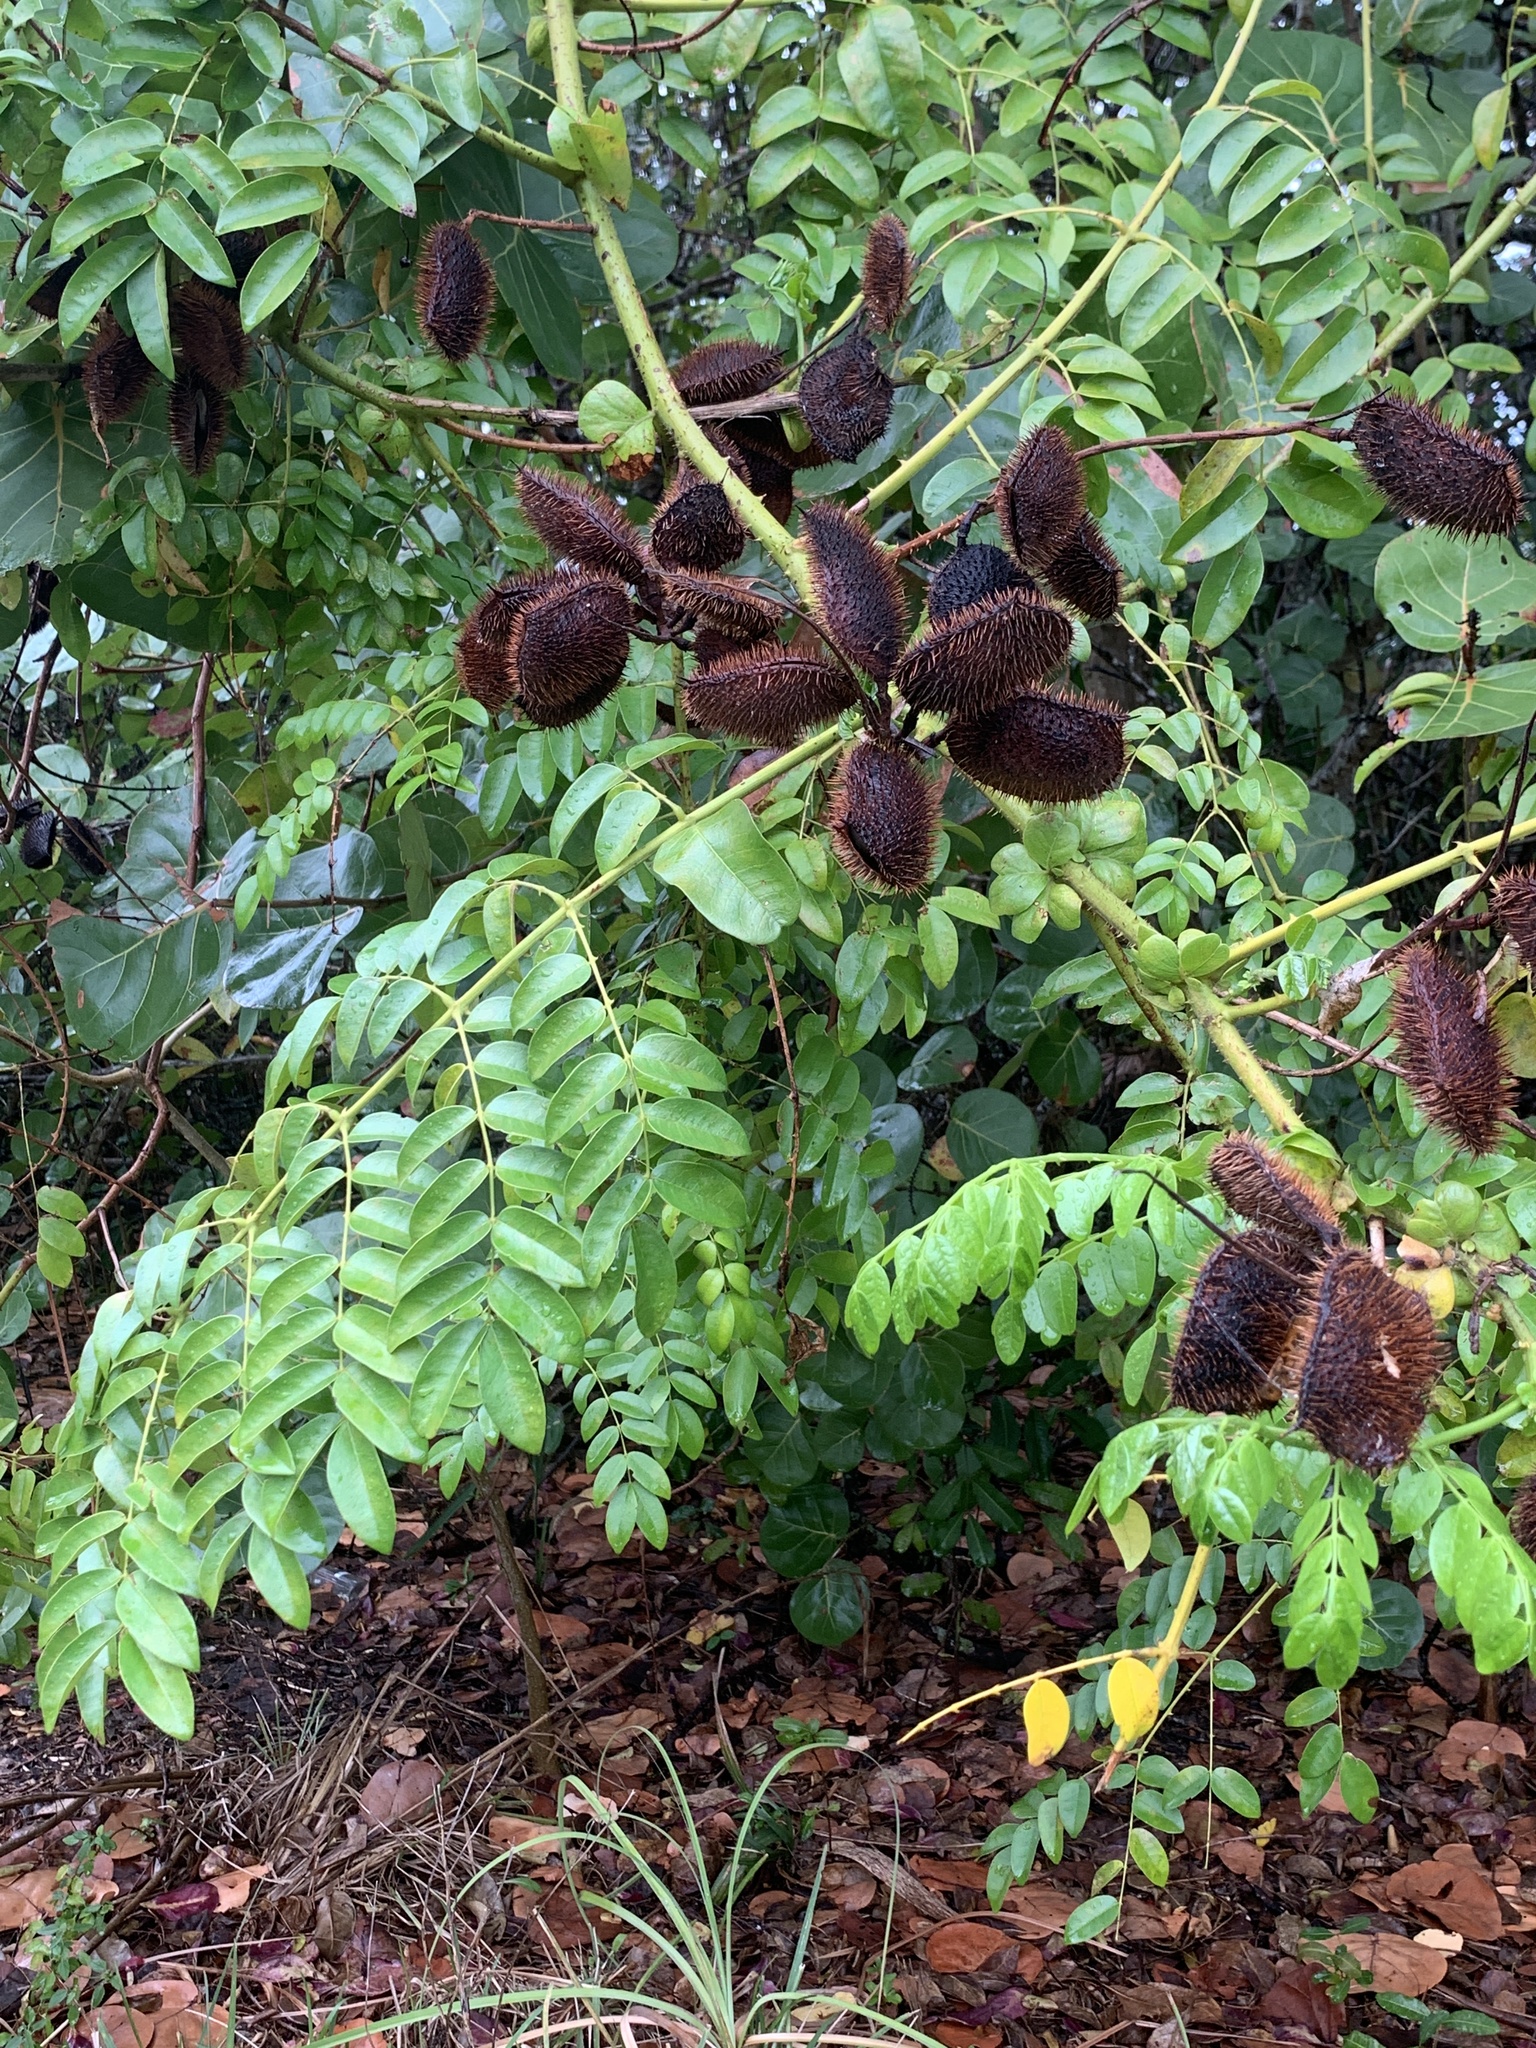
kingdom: Plantae
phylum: Tracheophyta
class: Magnoliopsida
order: Fabales
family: Fabaceae
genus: Guilandina
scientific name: Guilandina bonduc
